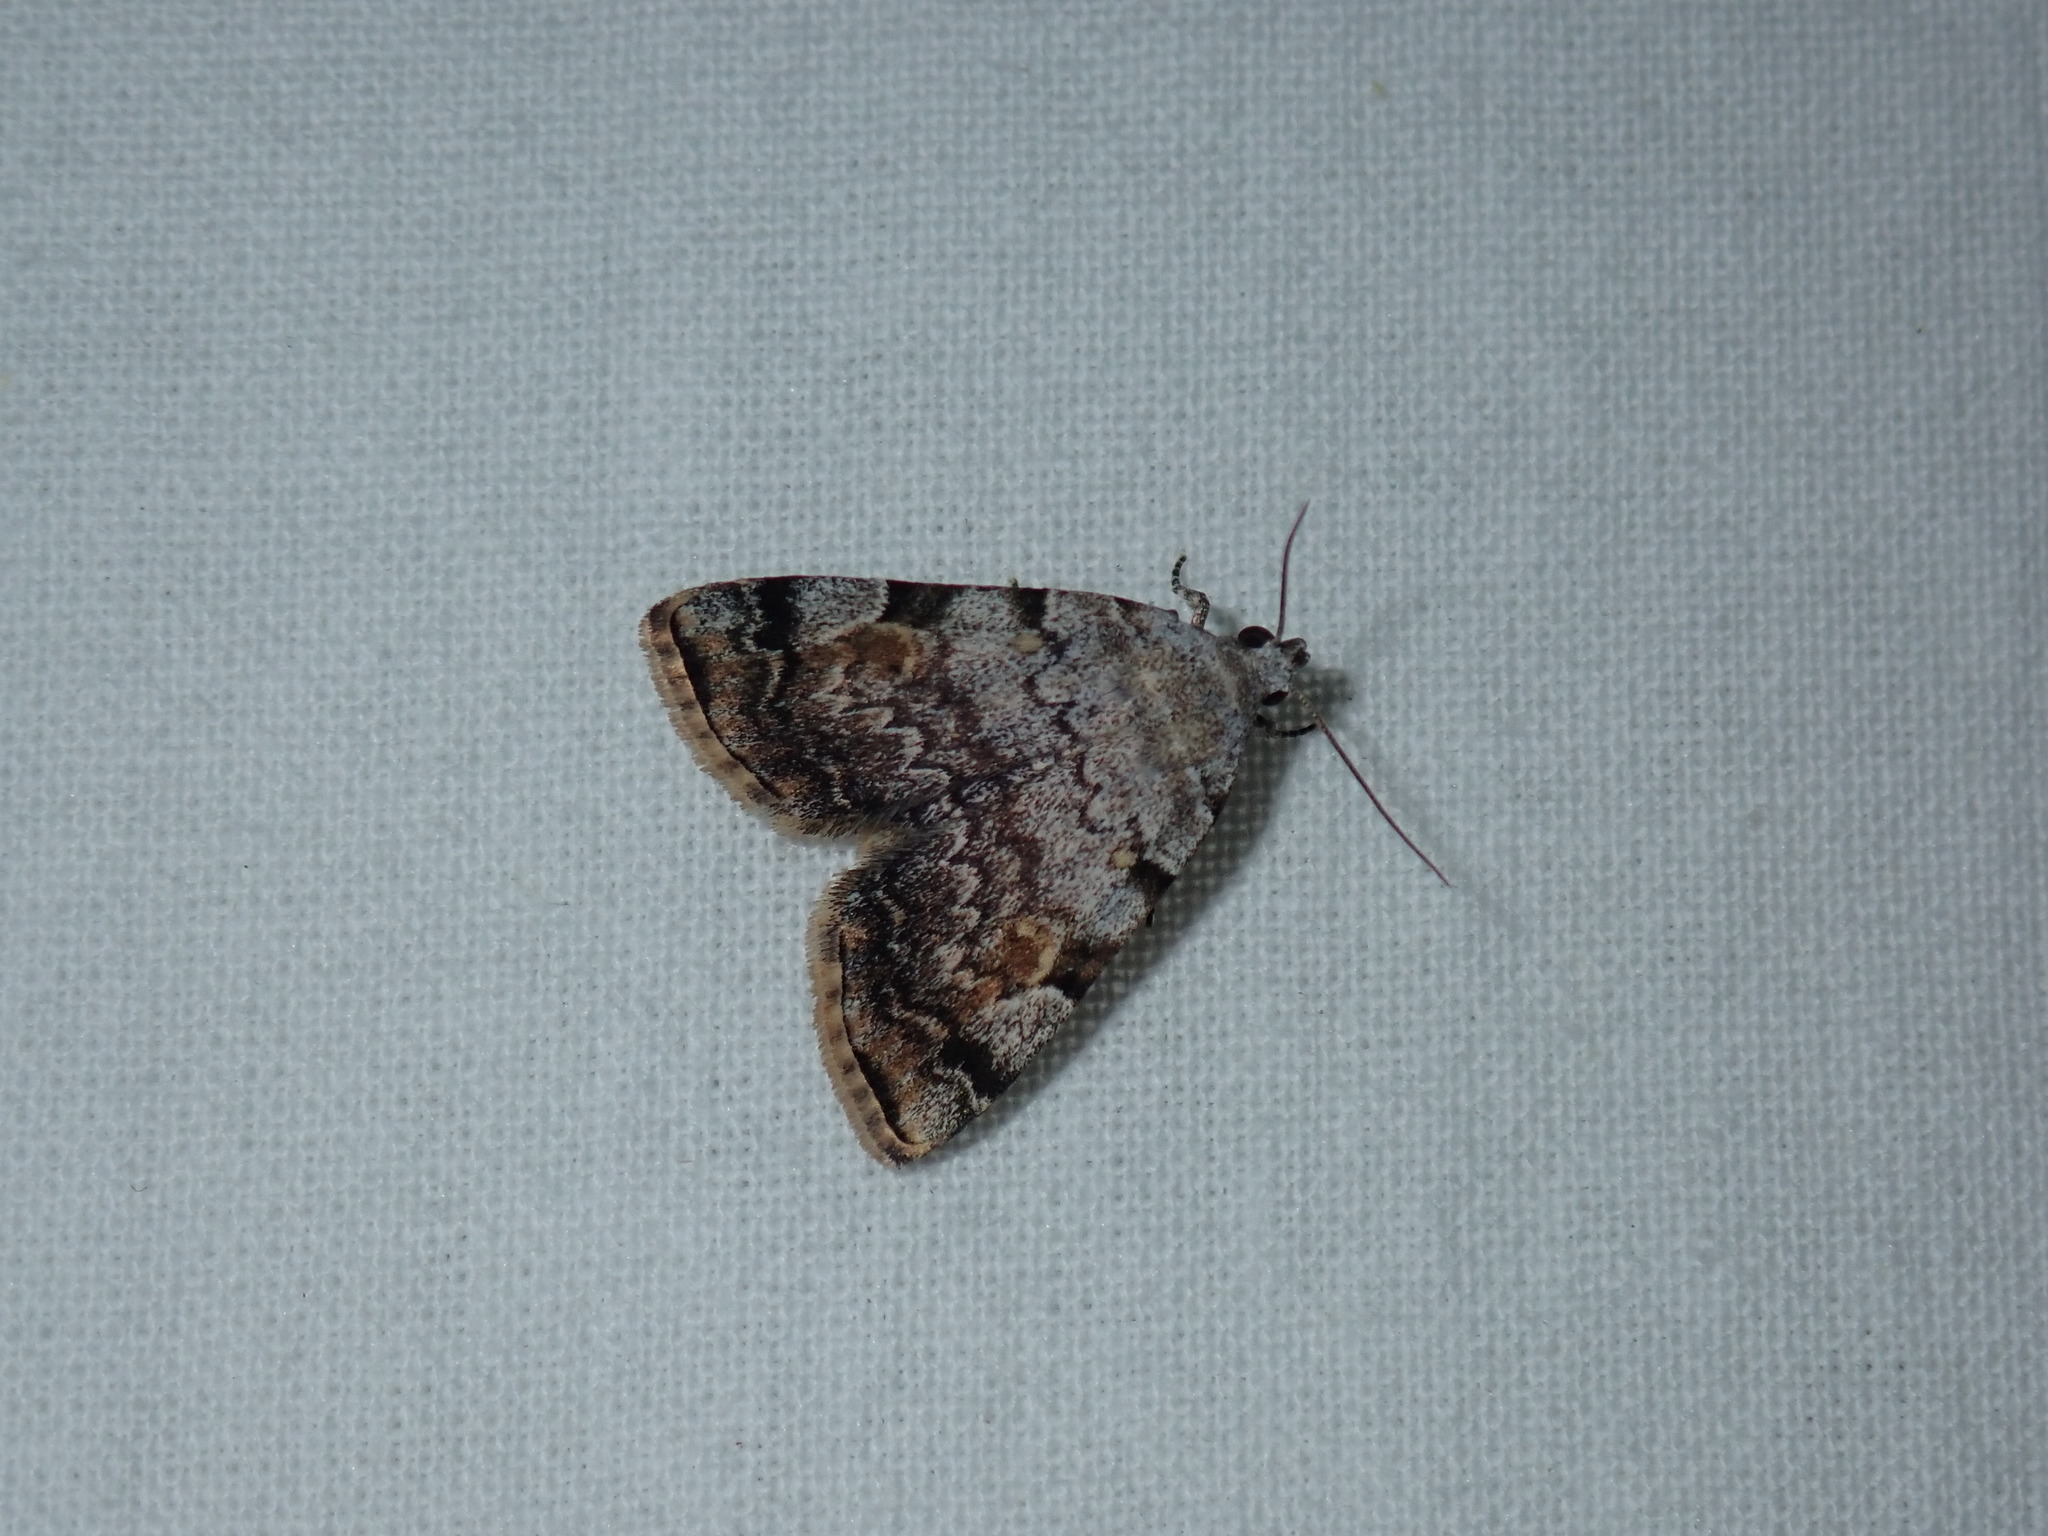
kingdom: Animalia
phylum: Arthropoda
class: Insecta
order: Lepidoptera
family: Erebidae
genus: Idia
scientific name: Idia americalis
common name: American idia moth
